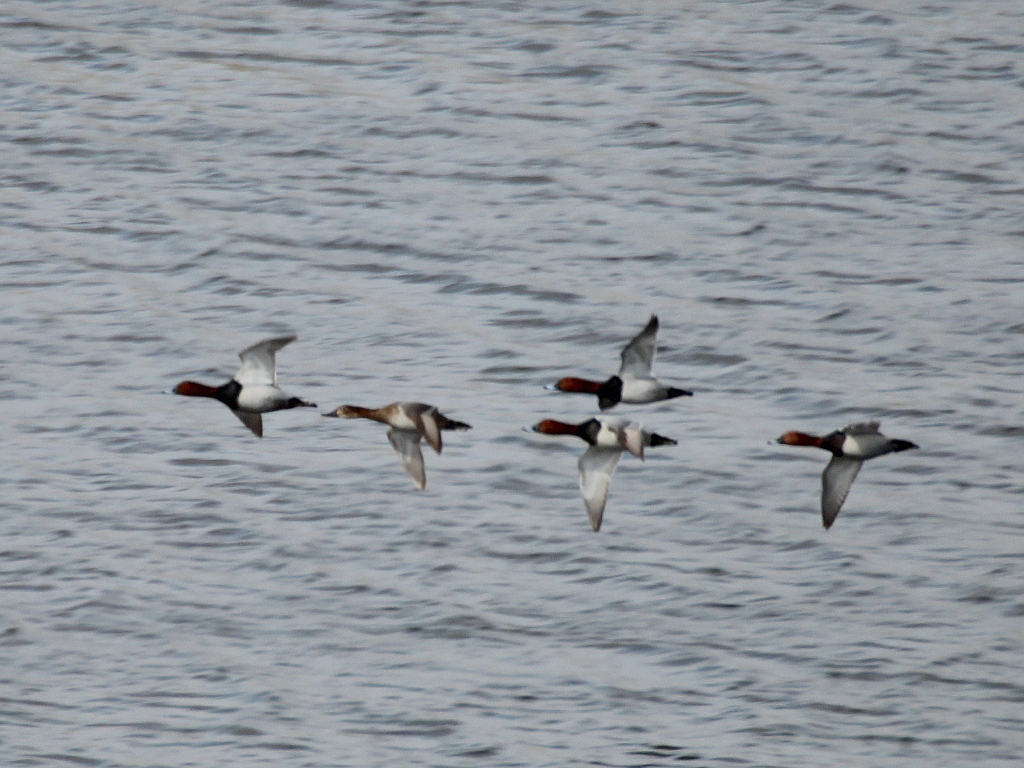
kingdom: Animalia
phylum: Chordata
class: Aves
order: Anseriformes
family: Anatidae
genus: Aythya
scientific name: Aythya ferina
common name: Common pochard
